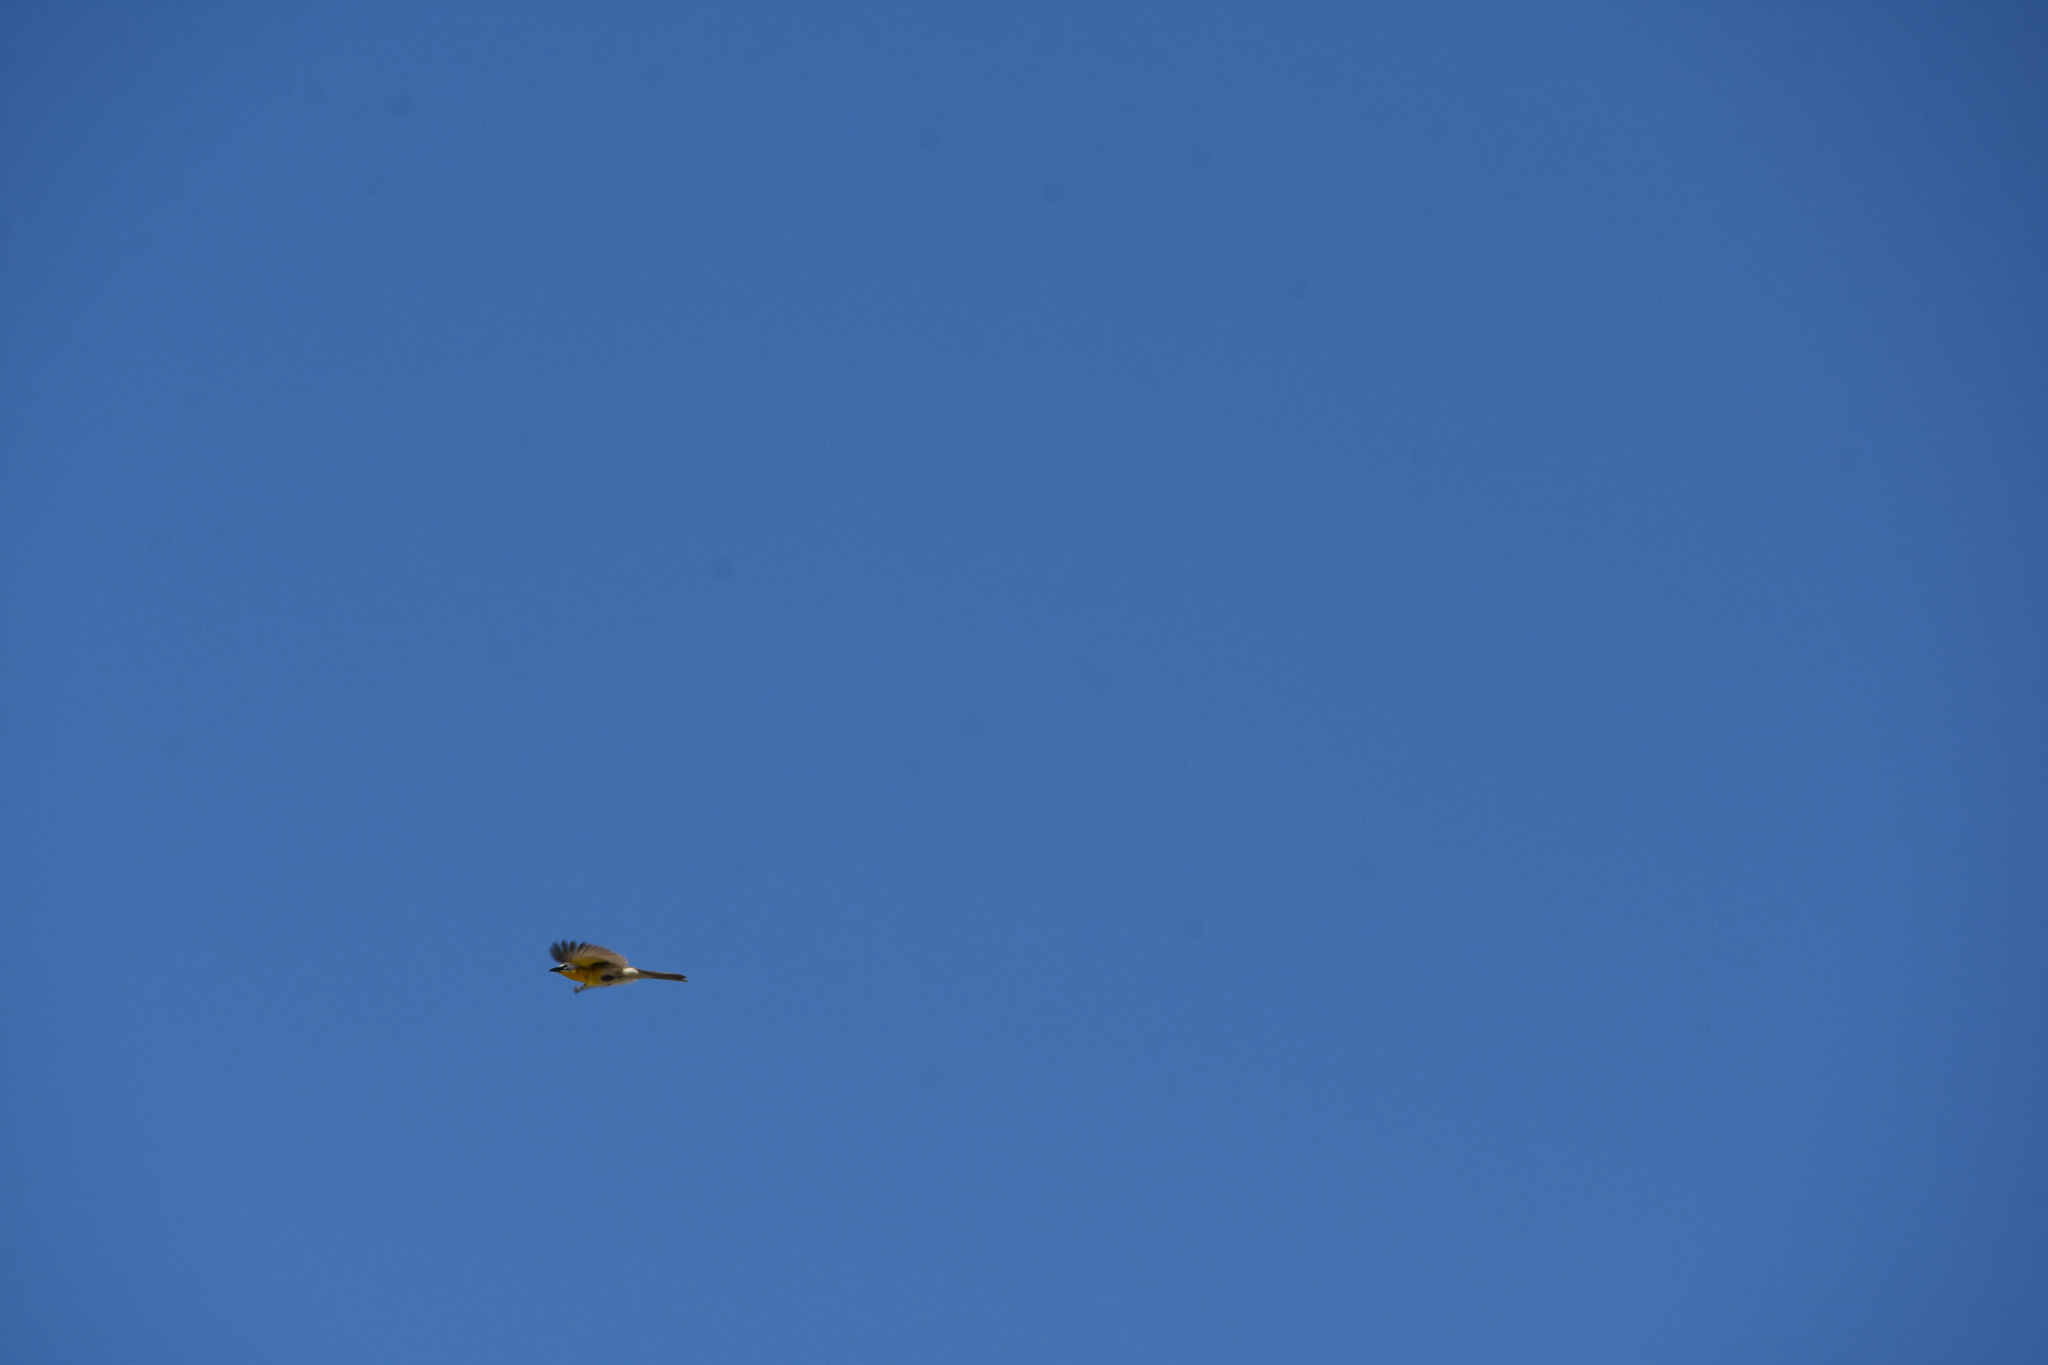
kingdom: Animalia
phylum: Chordata
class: Aves
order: Passeriformes
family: Parulidae
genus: Icteria
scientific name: Icteria virens
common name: Yellow-breasted chat
